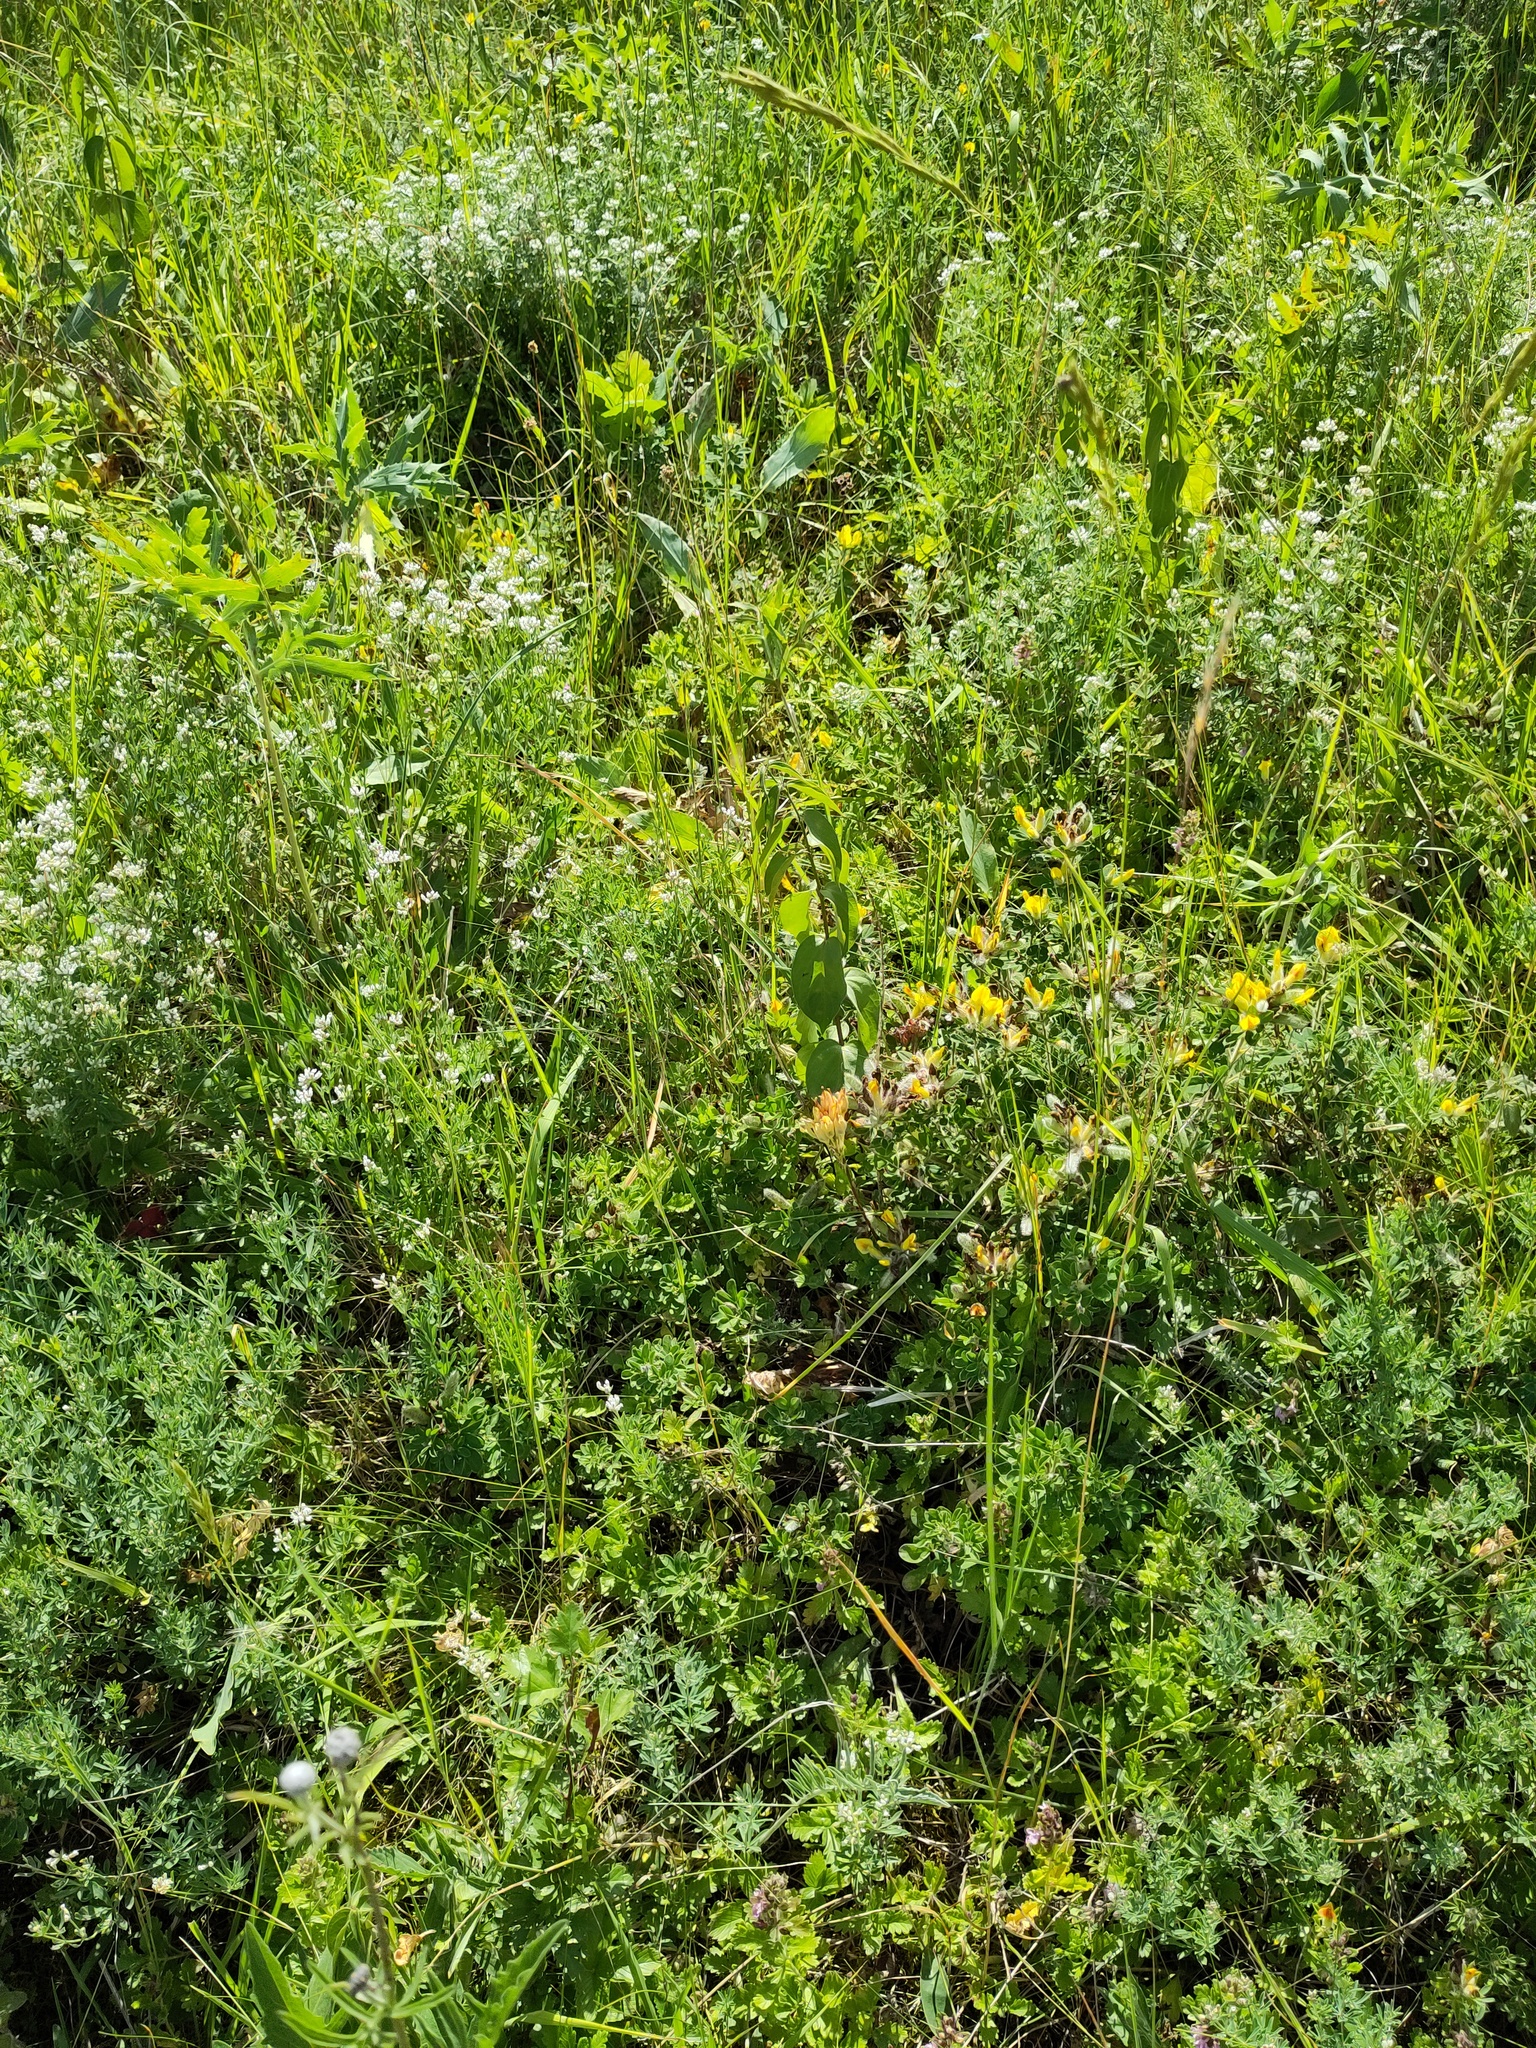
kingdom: Plantae
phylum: Tracheophyta
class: Magnoliopsida
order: Apiales
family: Apiaceae
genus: Eryngium
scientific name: Eryngium campestre
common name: Field eryngo
